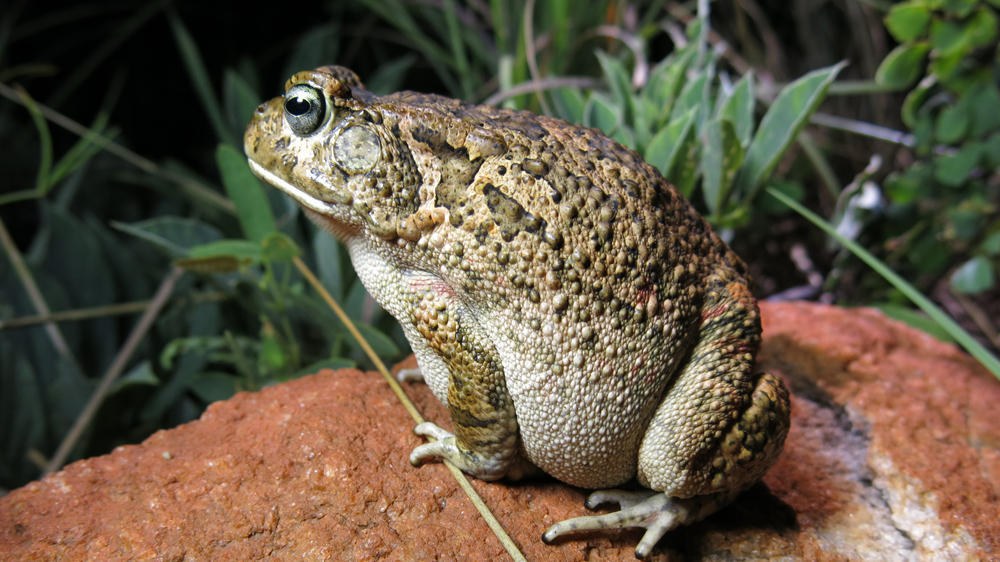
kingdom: Animalia
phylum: Chordata
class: Amphibia
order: Anura
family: Bufonidae
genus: Sclerophrys
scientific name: Sclerophrys gutturalis
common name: African common toad
